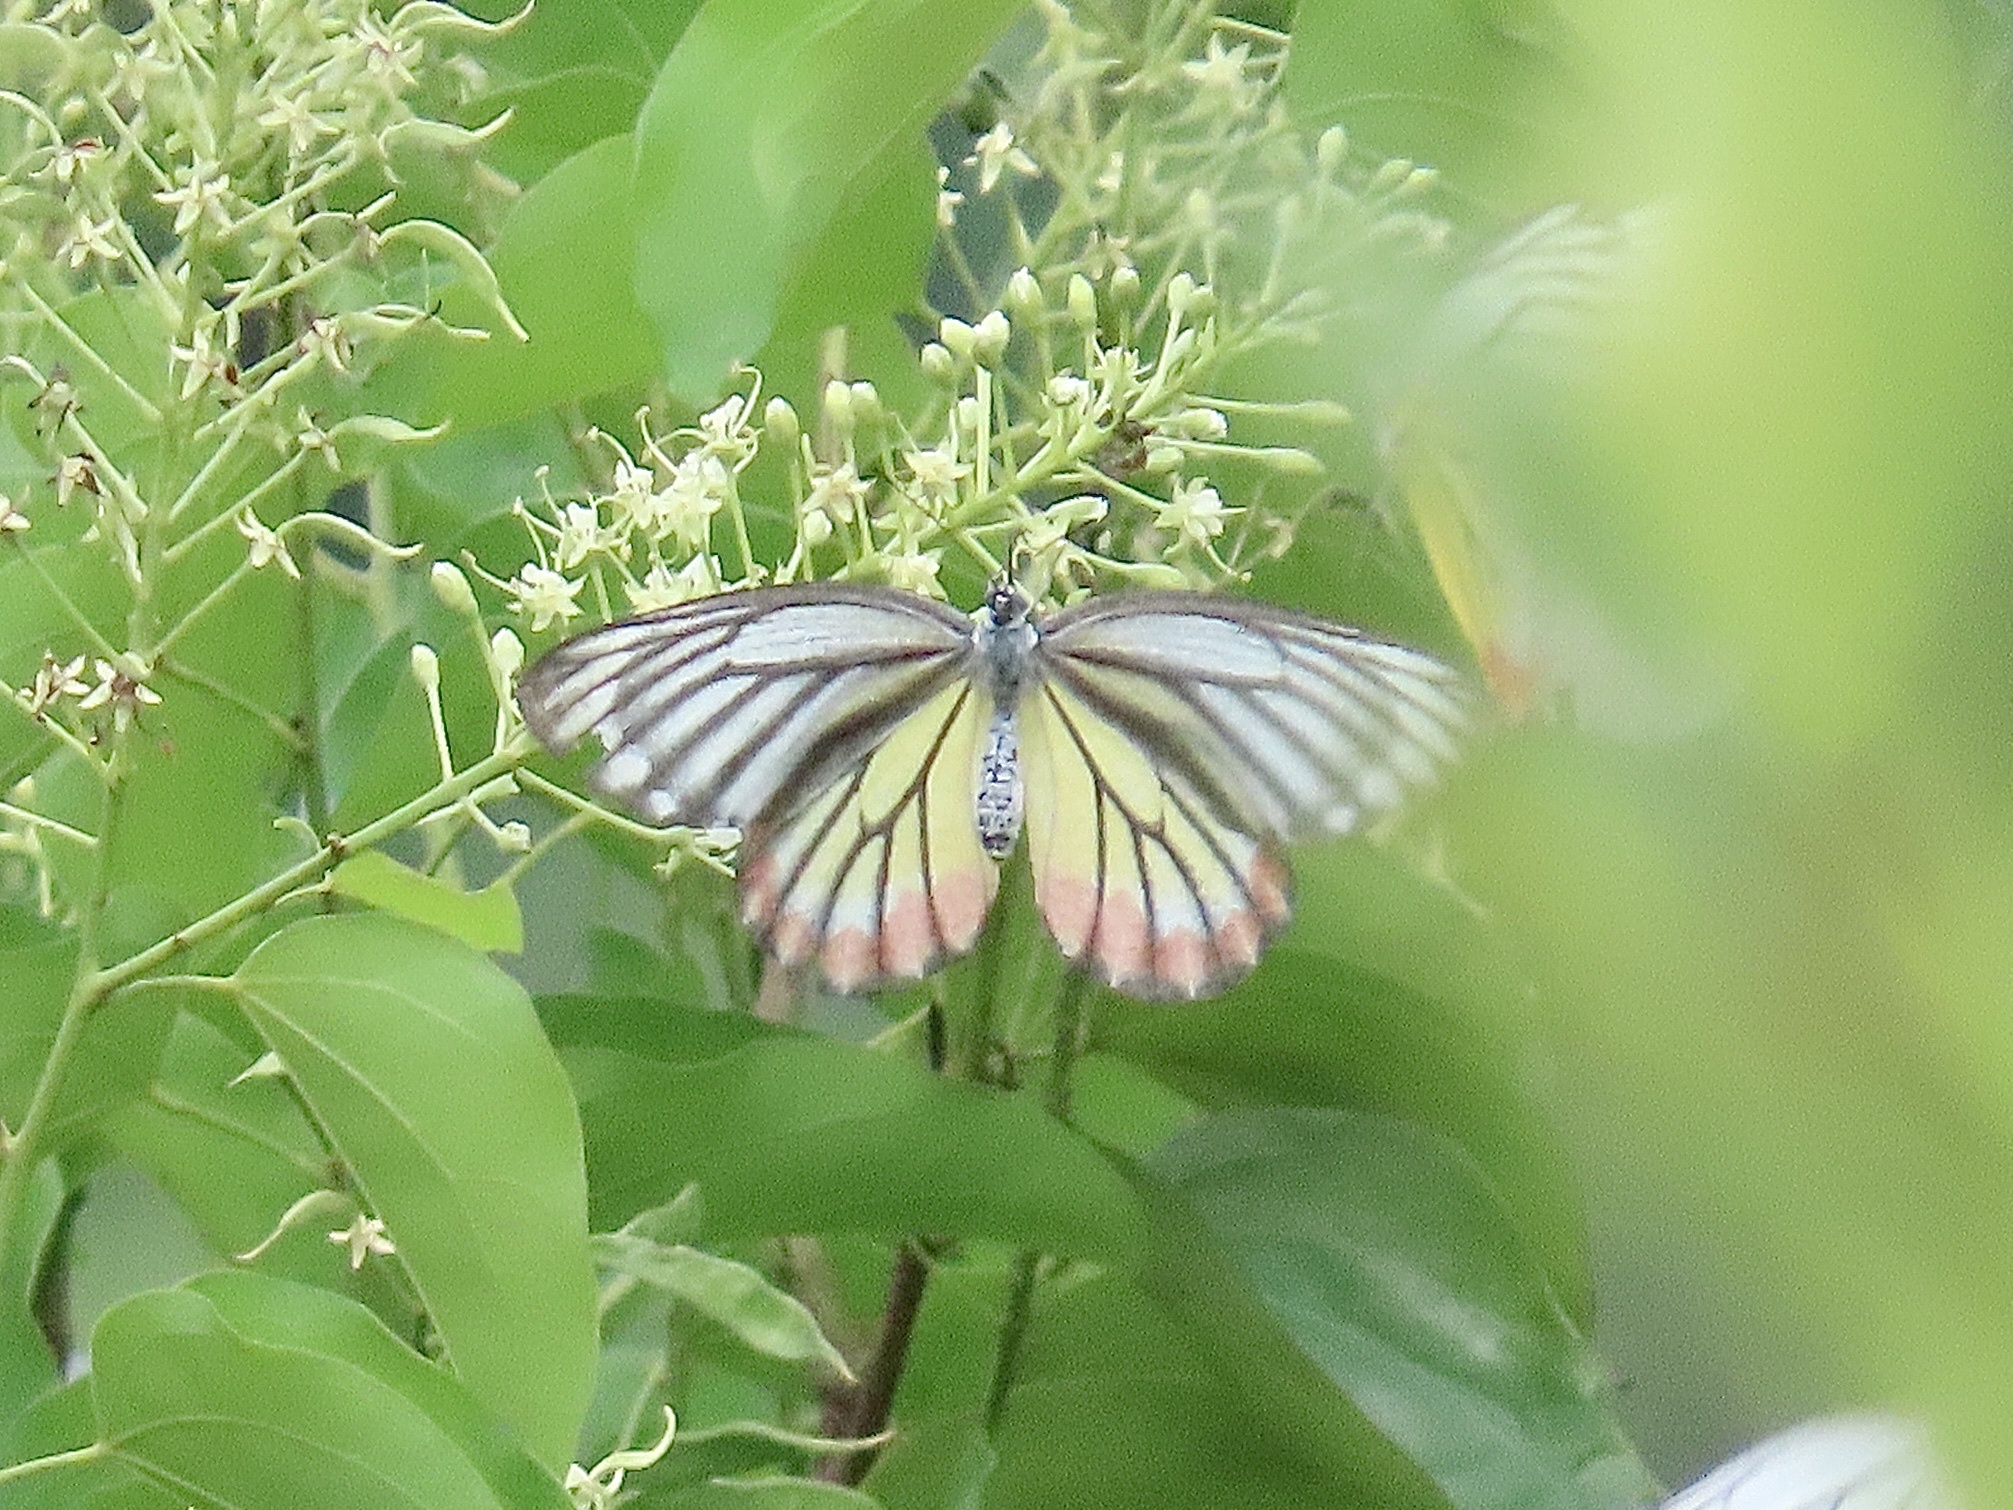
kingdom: Animalia
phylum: Arthropoda
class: Insecta
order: Lepidoptera
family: Pieridae
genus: Delias
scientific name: Delias hyparete
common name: Painted jezebel
